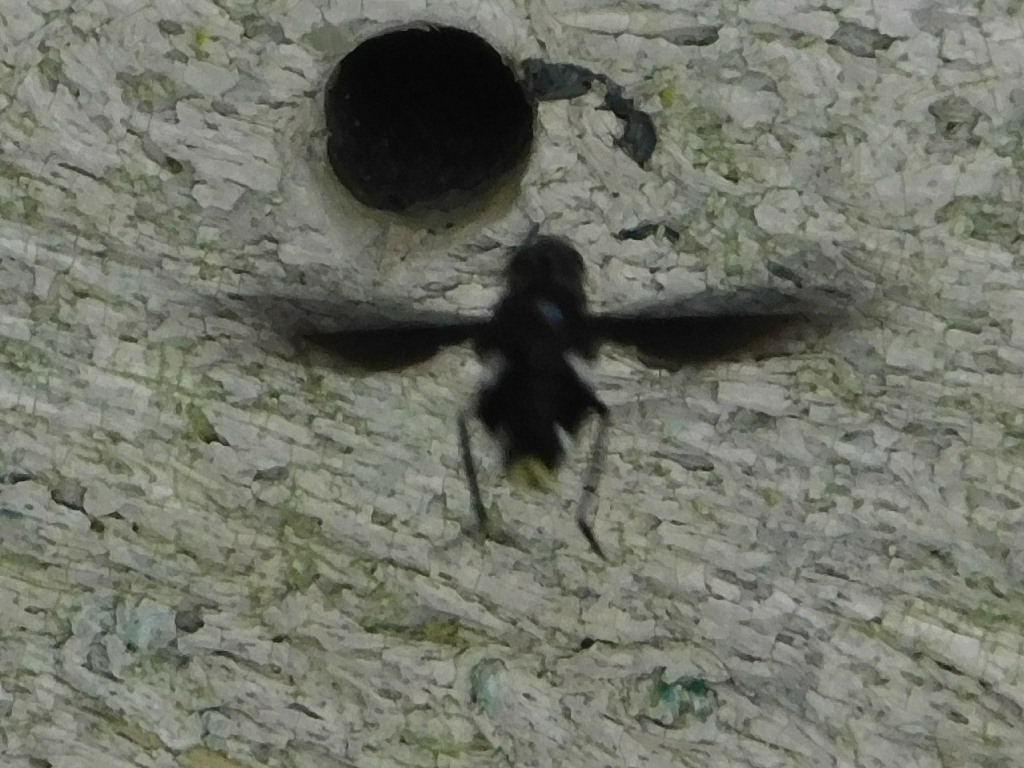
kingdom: Animalia
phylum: Arthropoda
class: Insecta
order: Diptera
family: Bombyliidae
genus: Brachyanax
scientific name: Brachyanax aterrimus
